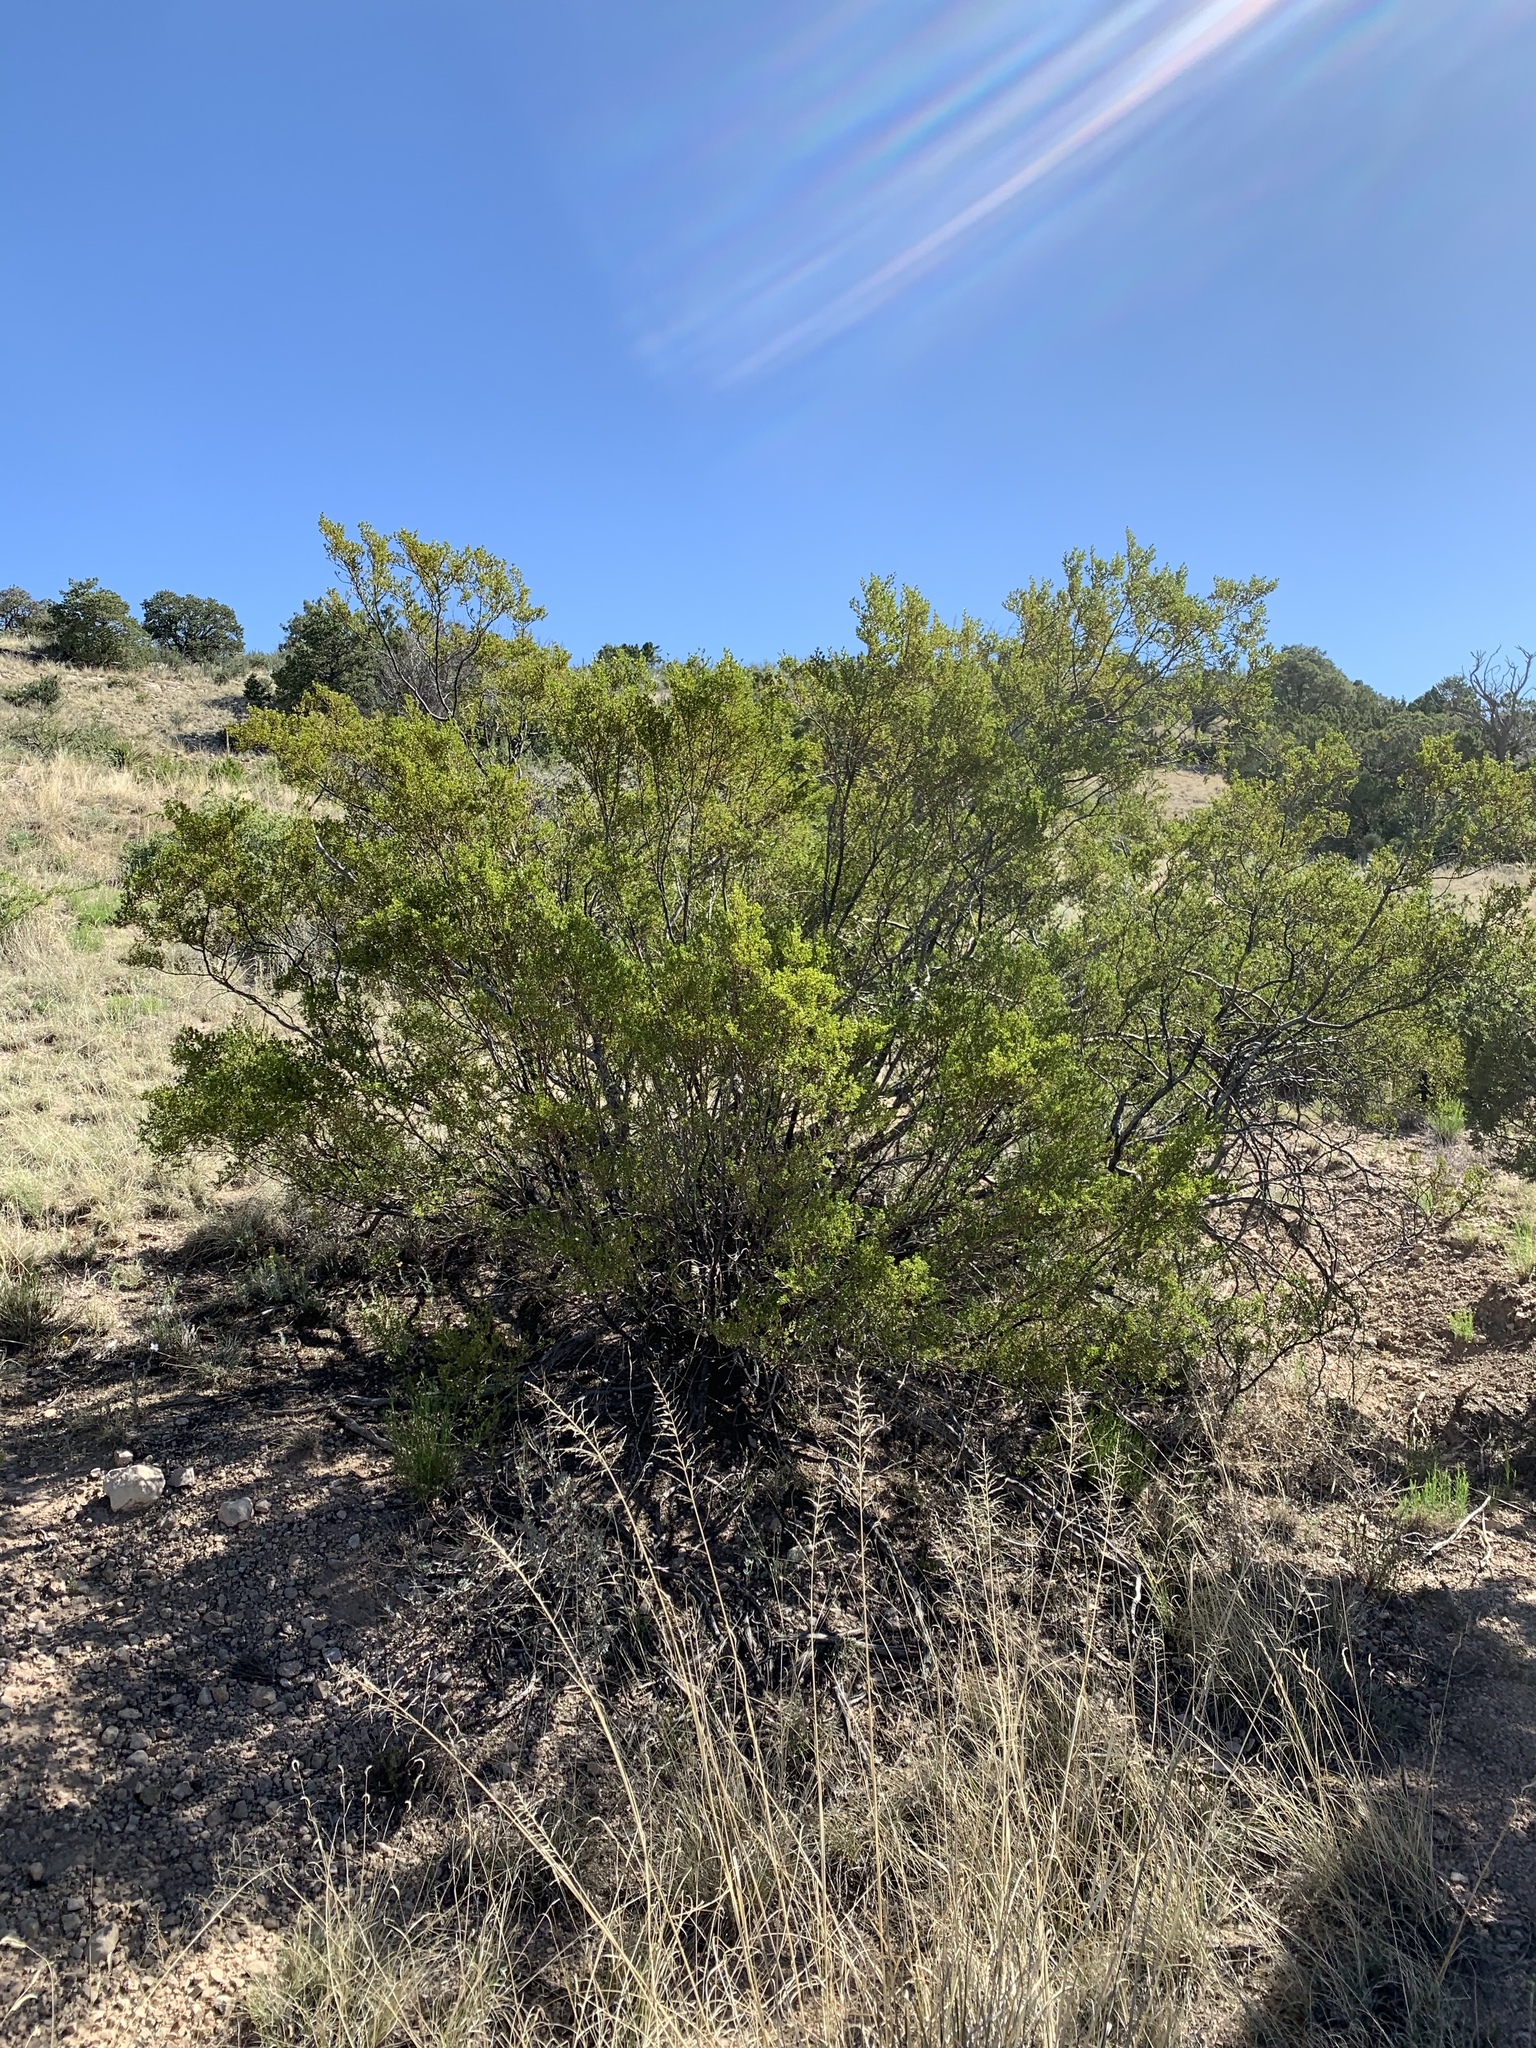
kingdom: Plantae
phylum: Tracheophyta
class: Magnoliopsida
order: Zygophyllales
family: Zygophyllaceae
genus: Larrea
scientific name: Larrea tridentata
